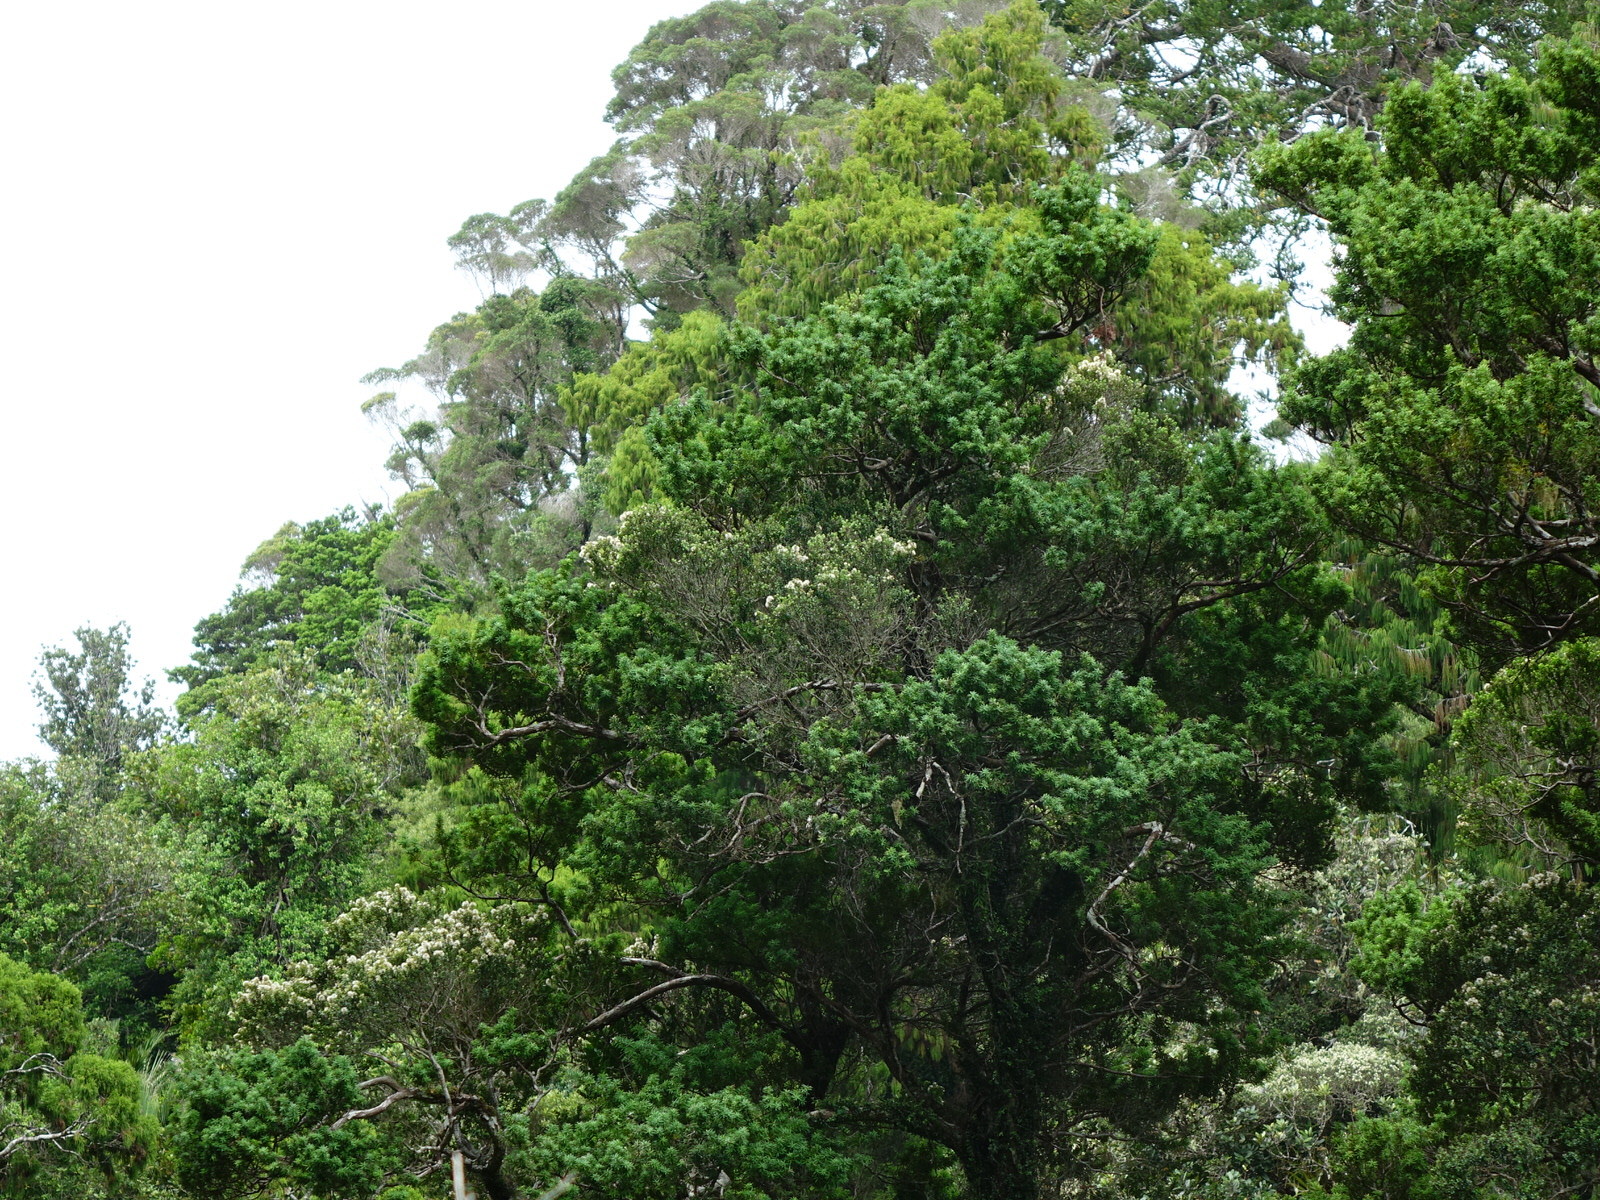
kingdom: Plantae
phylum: Tracheophyta
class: Magnoliopsida
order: Myrtales
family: Myrtaceae
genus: Metrosideros
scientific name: Metrosideros perforata
